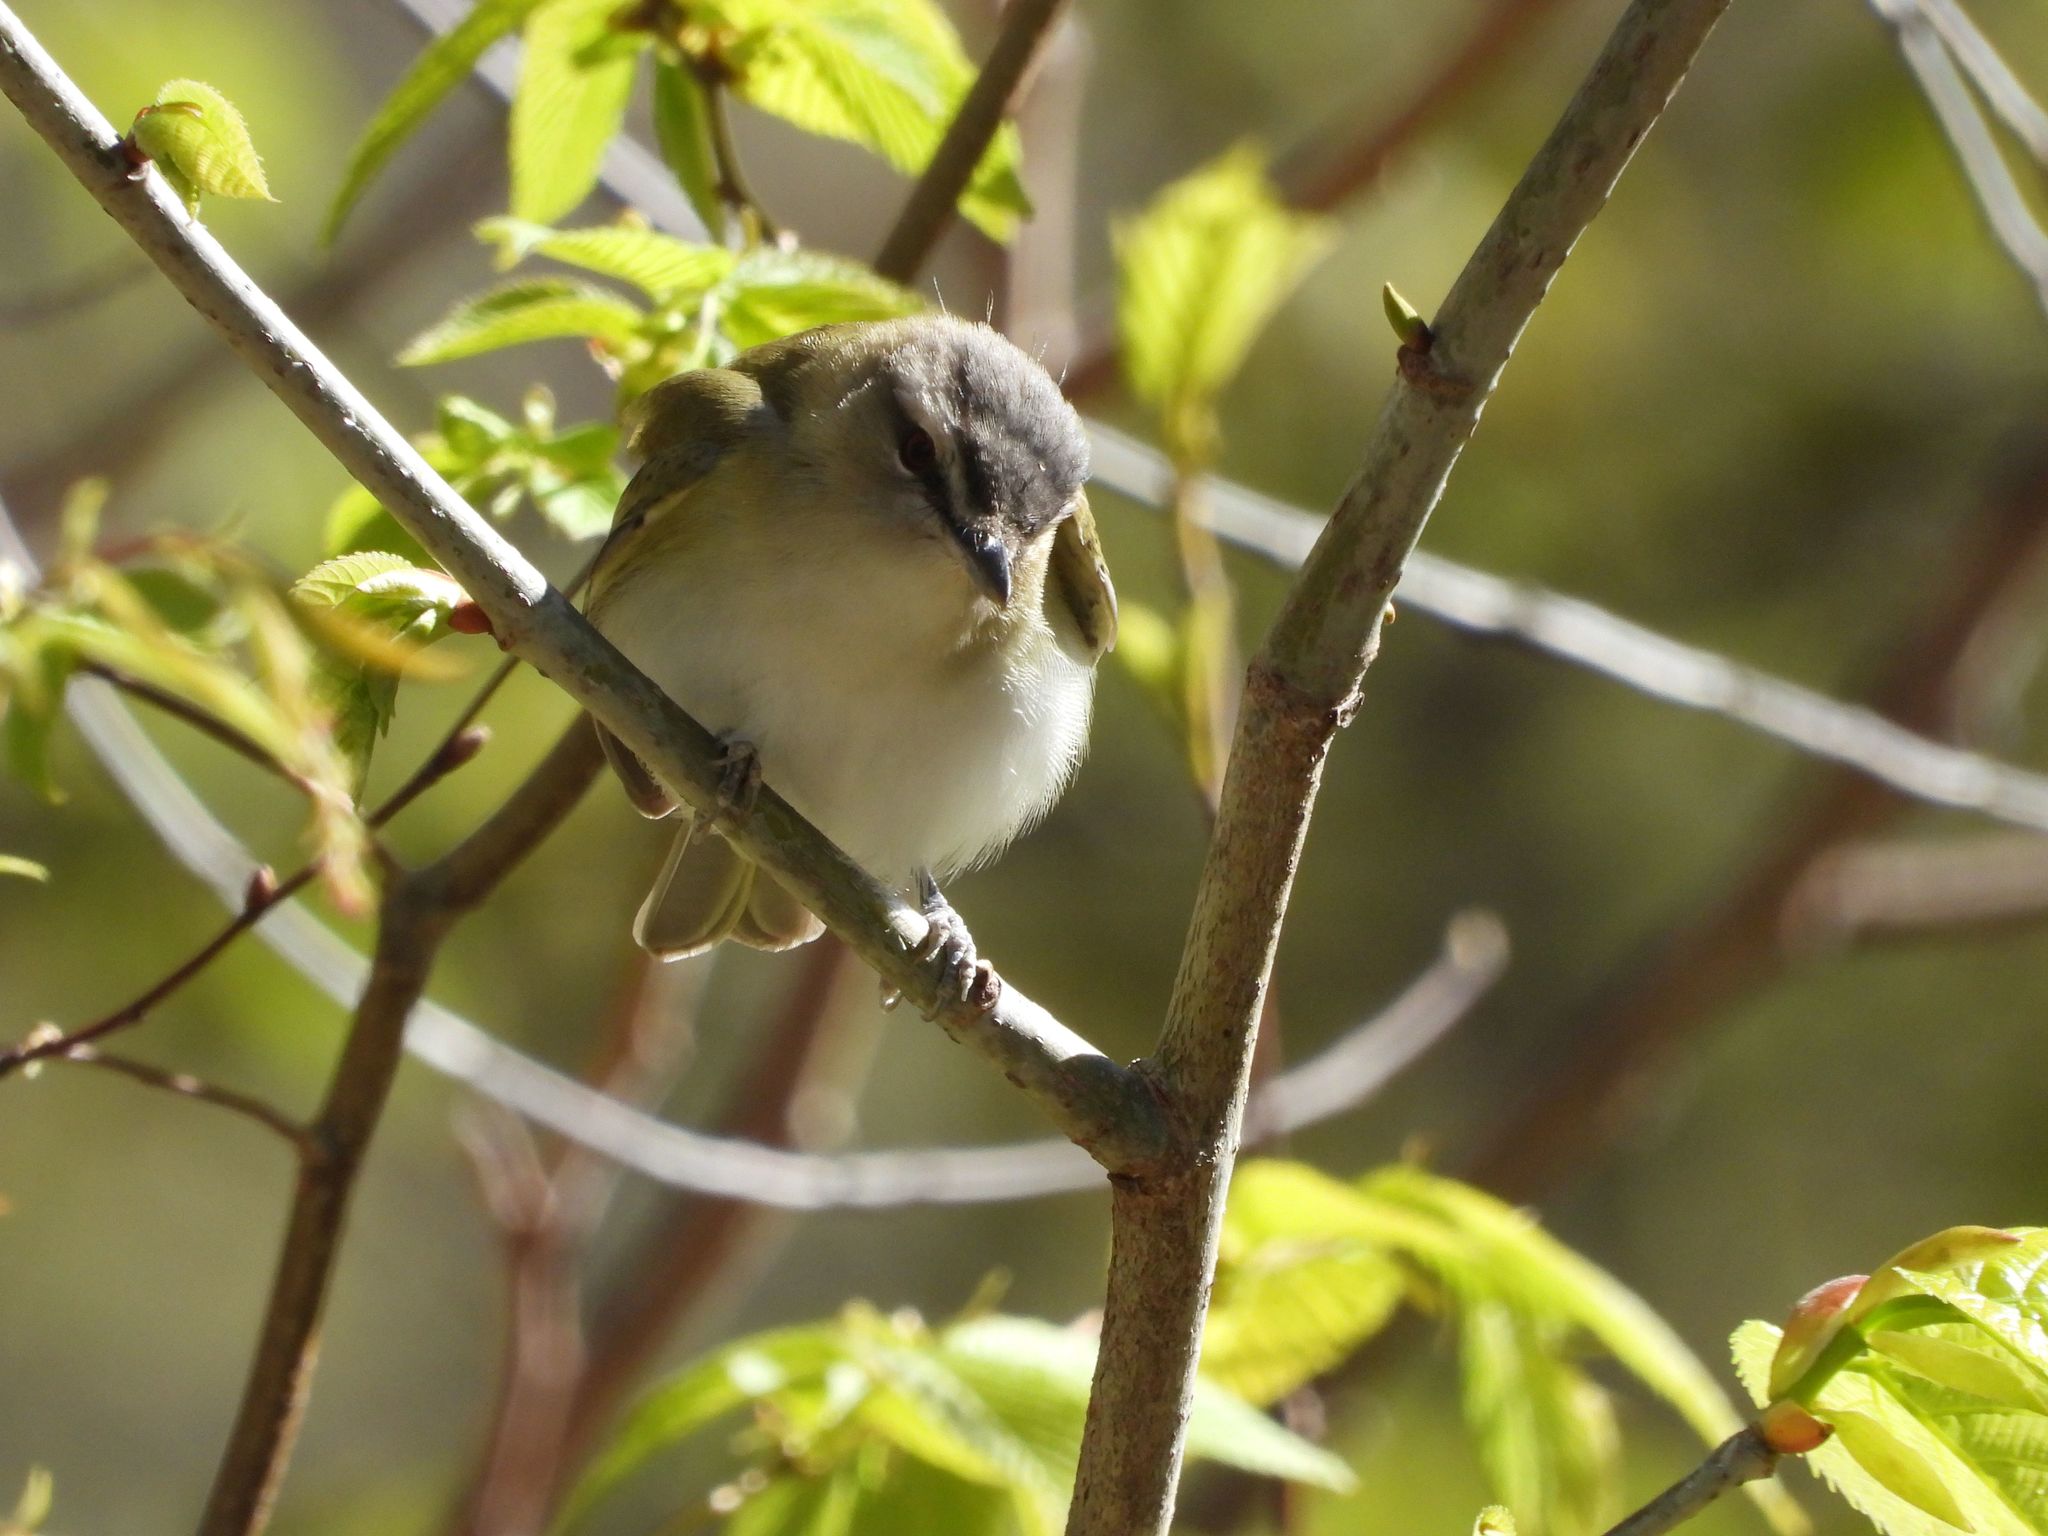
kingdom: Animalia
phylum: Chordata
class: Aves
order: Passeriformes
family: Vireonidae
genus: Vireo
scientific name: Vireo olivaceus
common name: Red-eyed vireo
